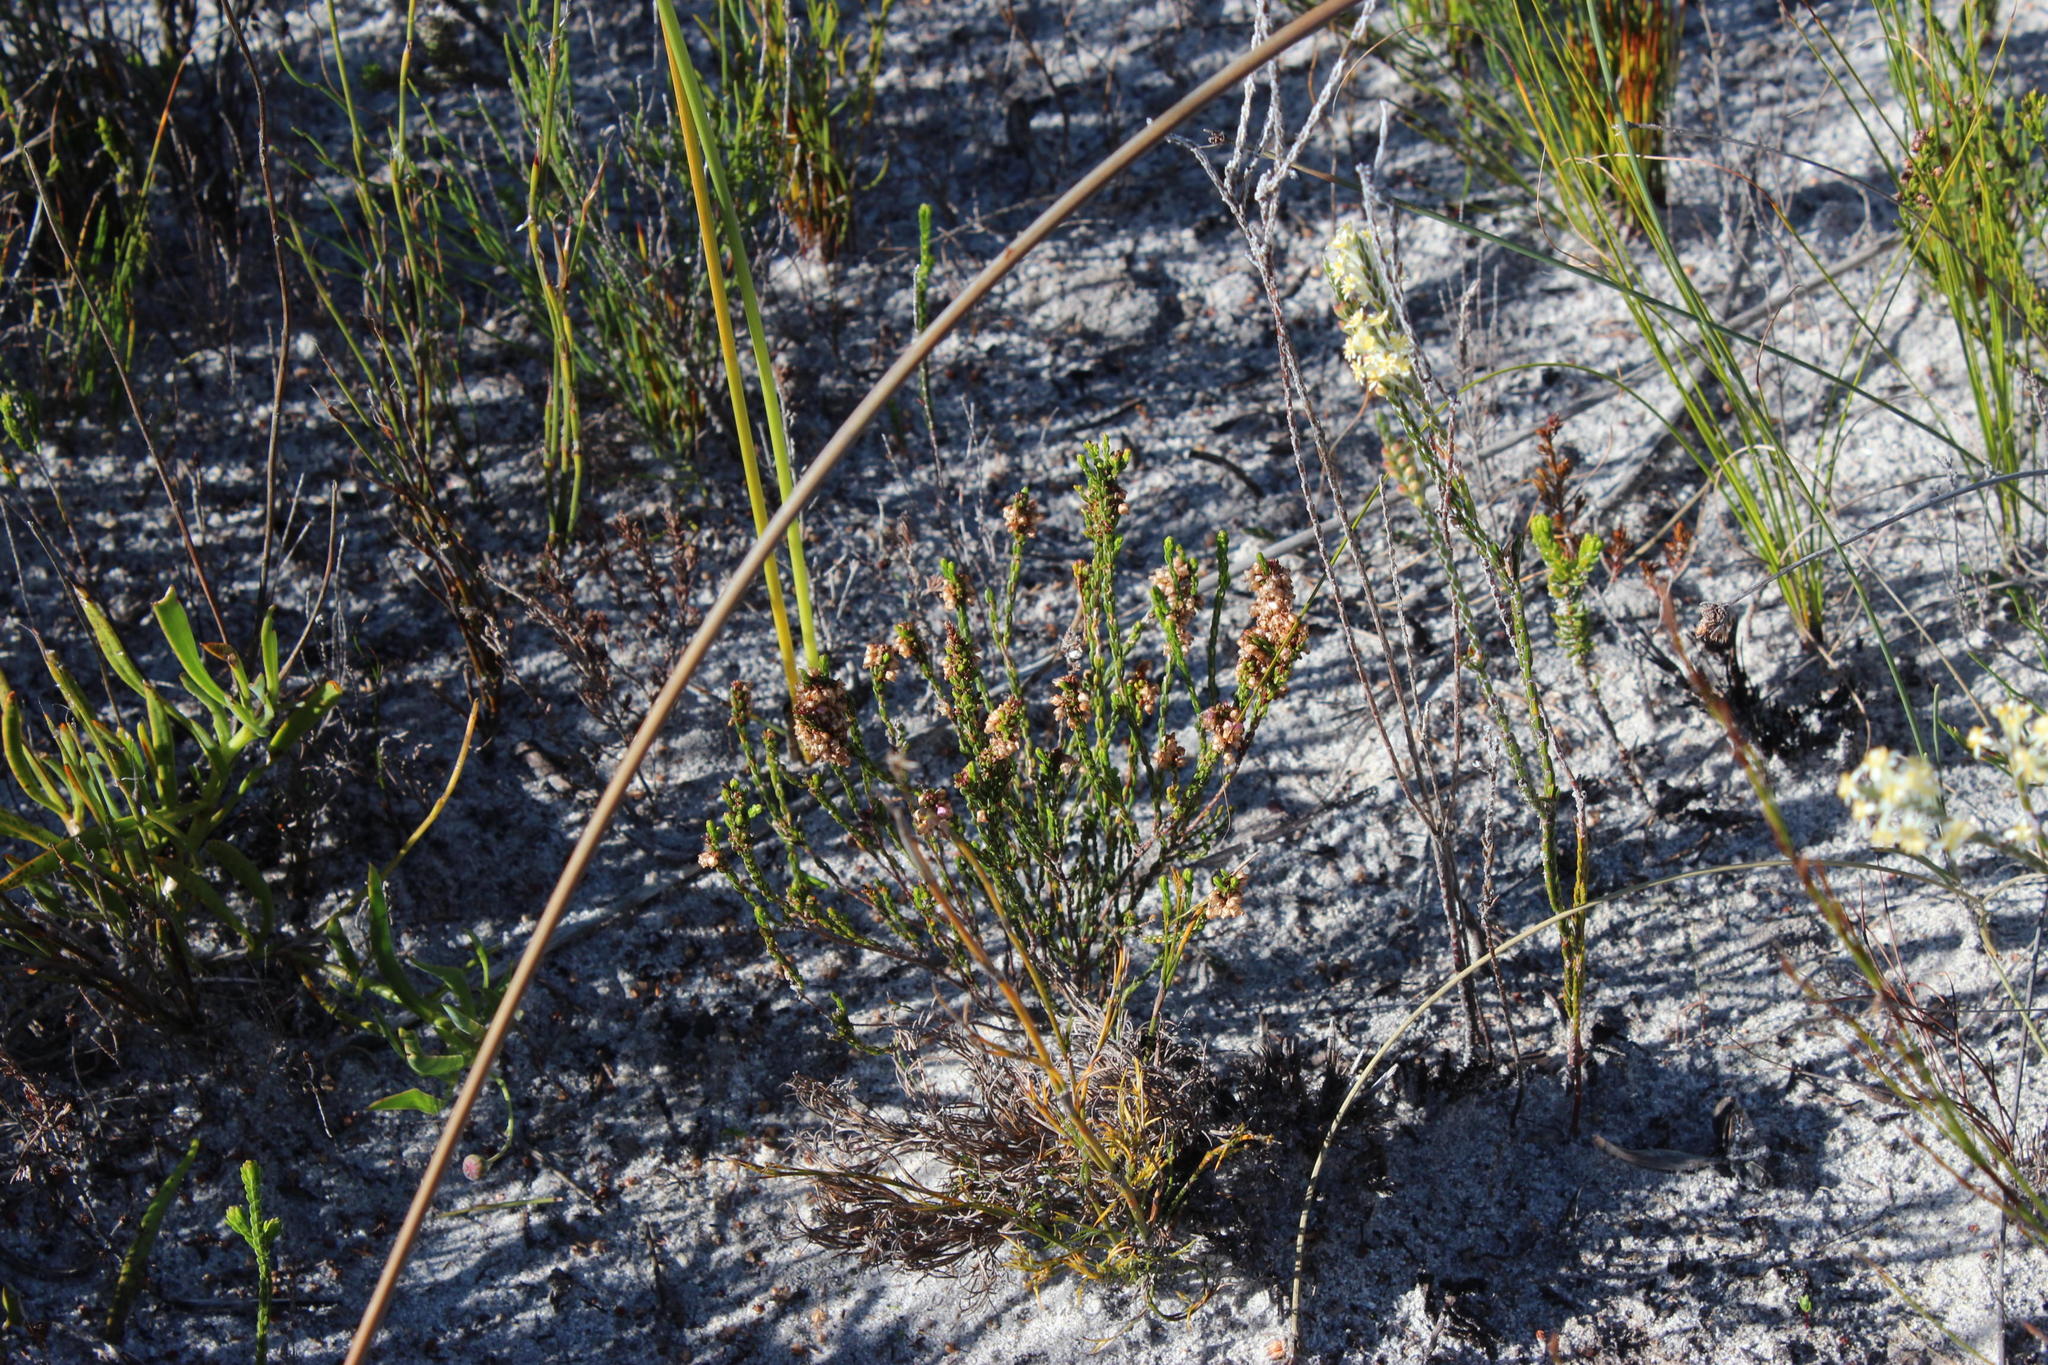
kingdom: Plantae
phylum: Tracheophyta
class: Magnoliopsida
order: Ericales
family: Ericaceae
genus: Erica
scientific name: Erica rhopalantha
